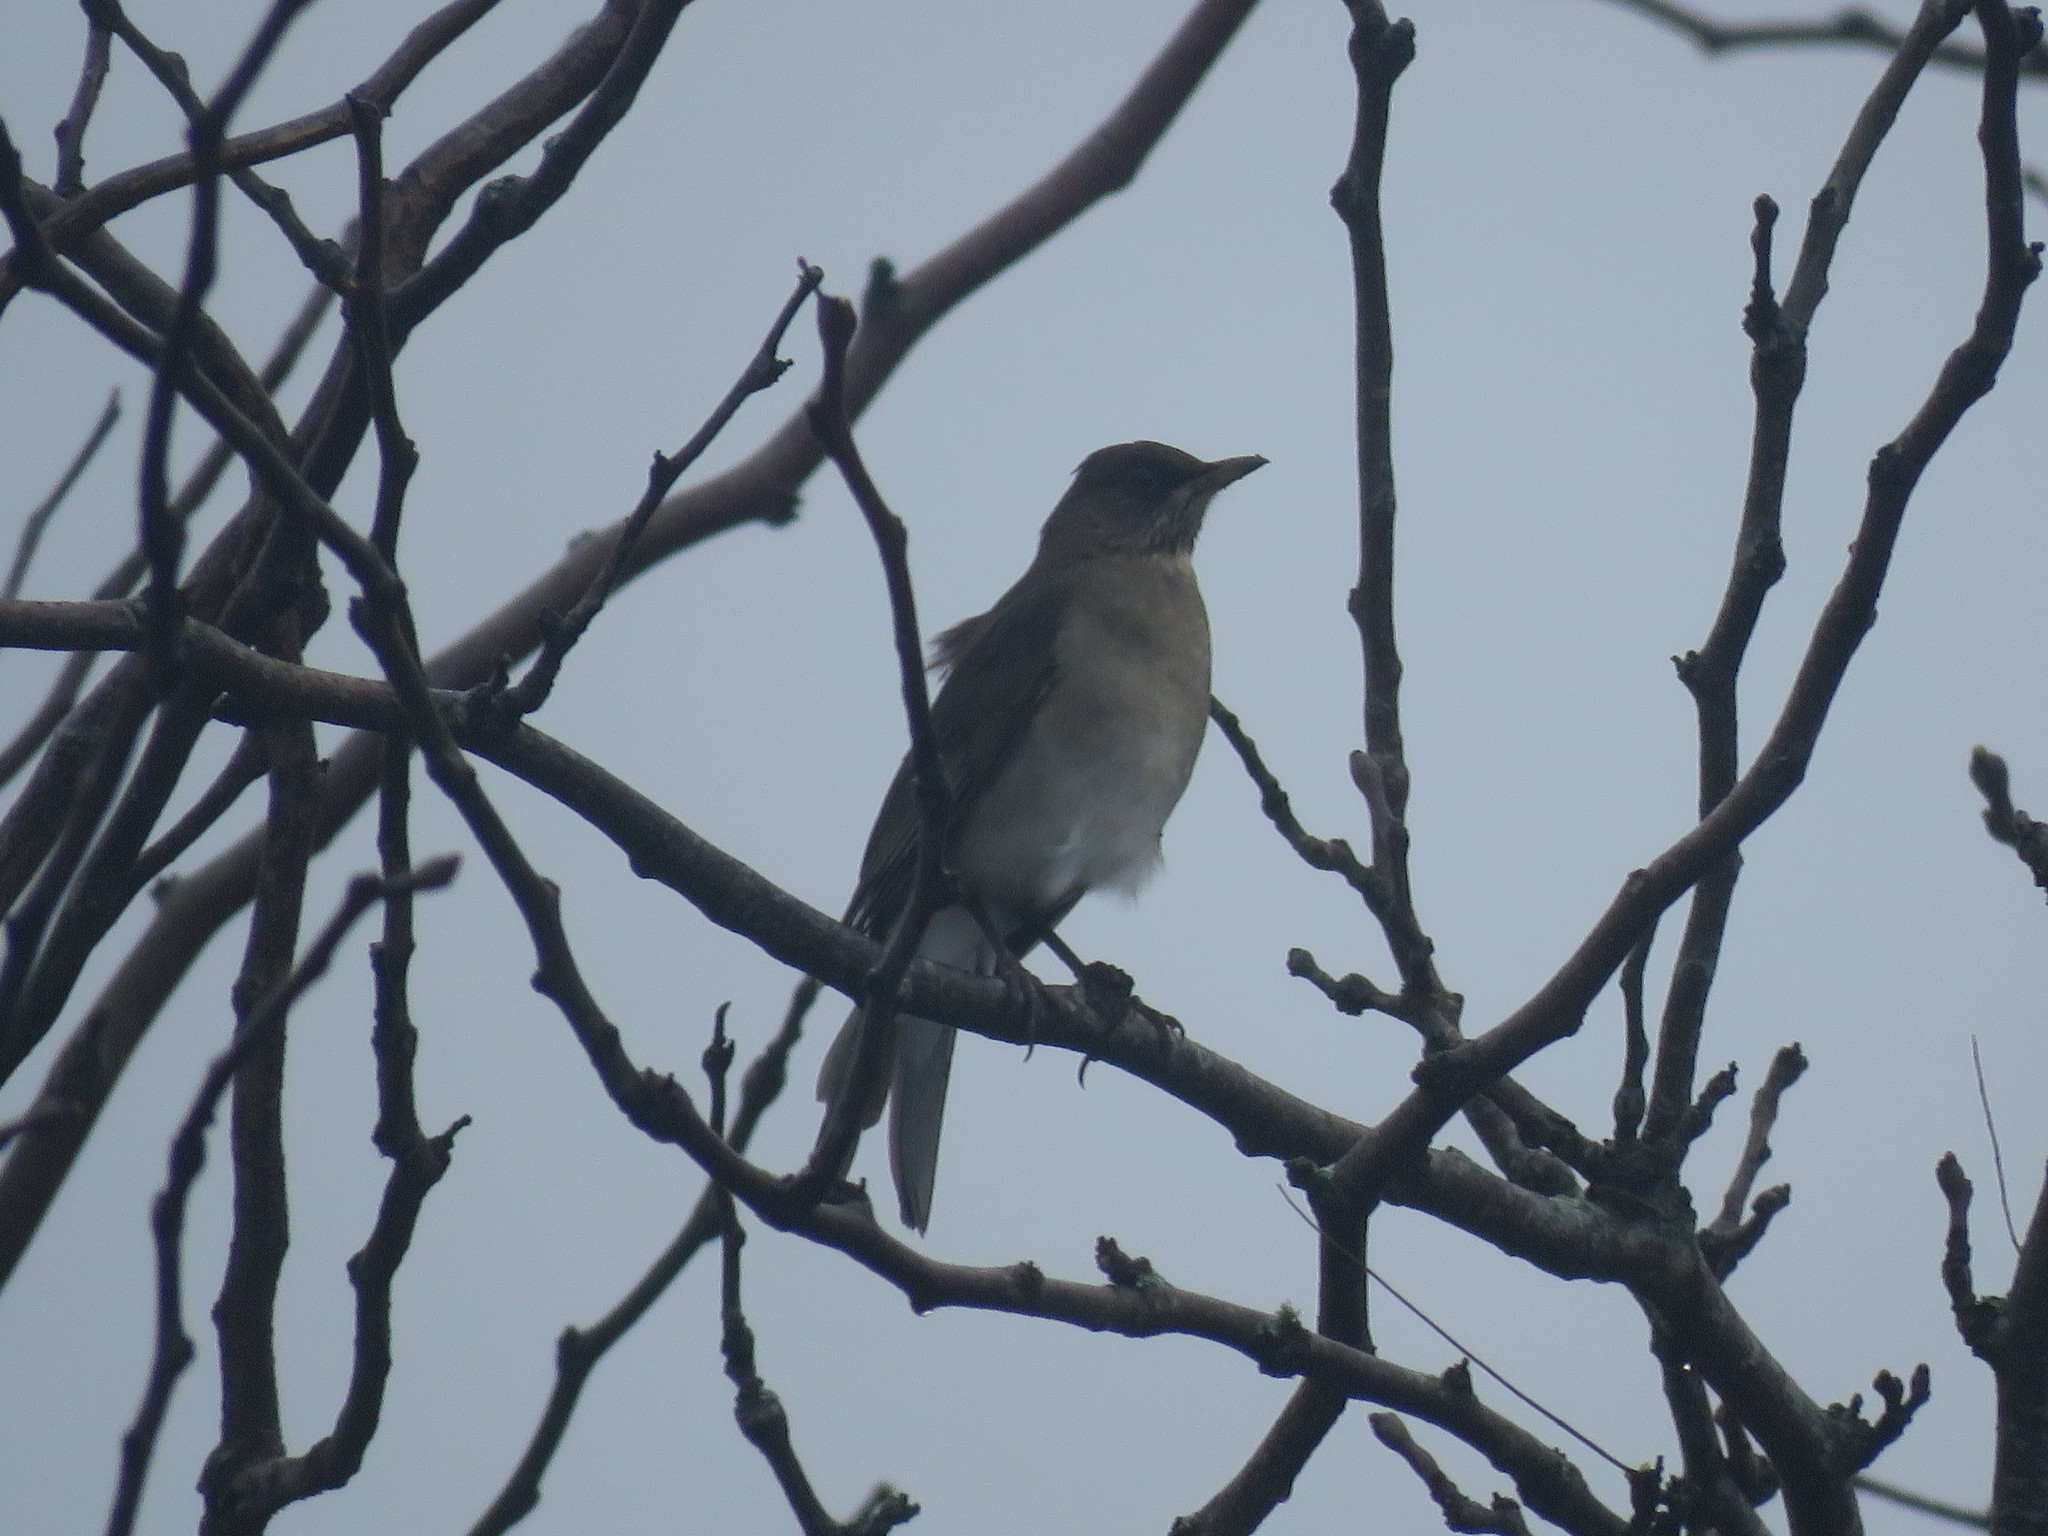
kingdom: Animalia
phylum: Chordata
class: Aves
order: Passeriformes
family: Turdidae
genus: Turdus
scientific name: Turdus amaurochalinus
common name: Creamy-bellied thrush
